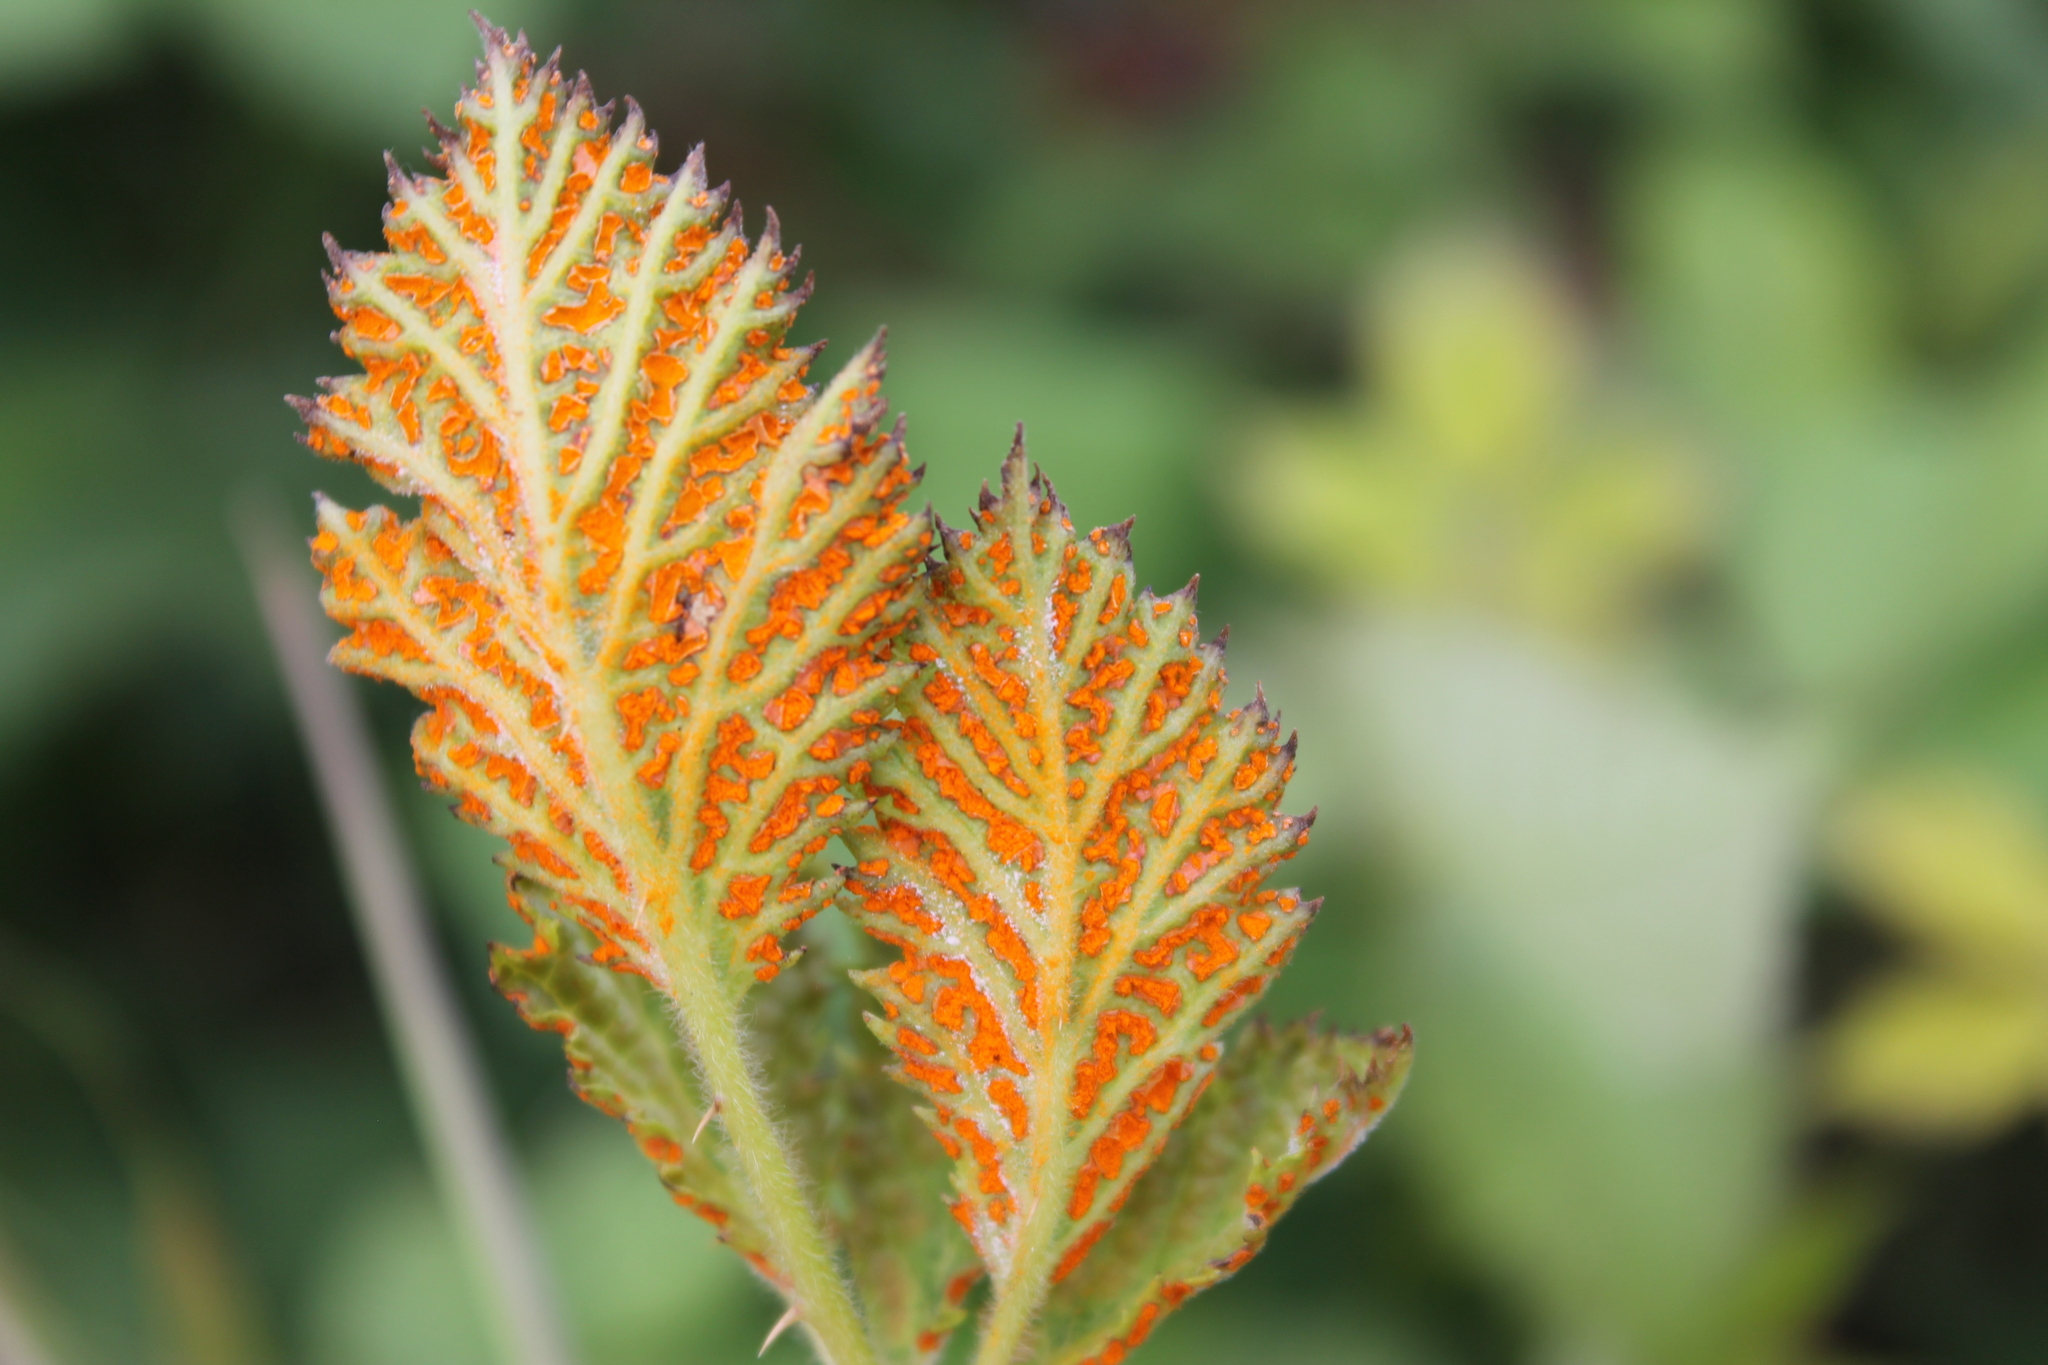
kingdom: Fungi
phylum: Basidiomycota
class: Pucciniomycetes
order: Pucciniales
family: Phragmidiaceae
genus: Arthuriomyces
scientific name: Arthuriomyces peckianus
